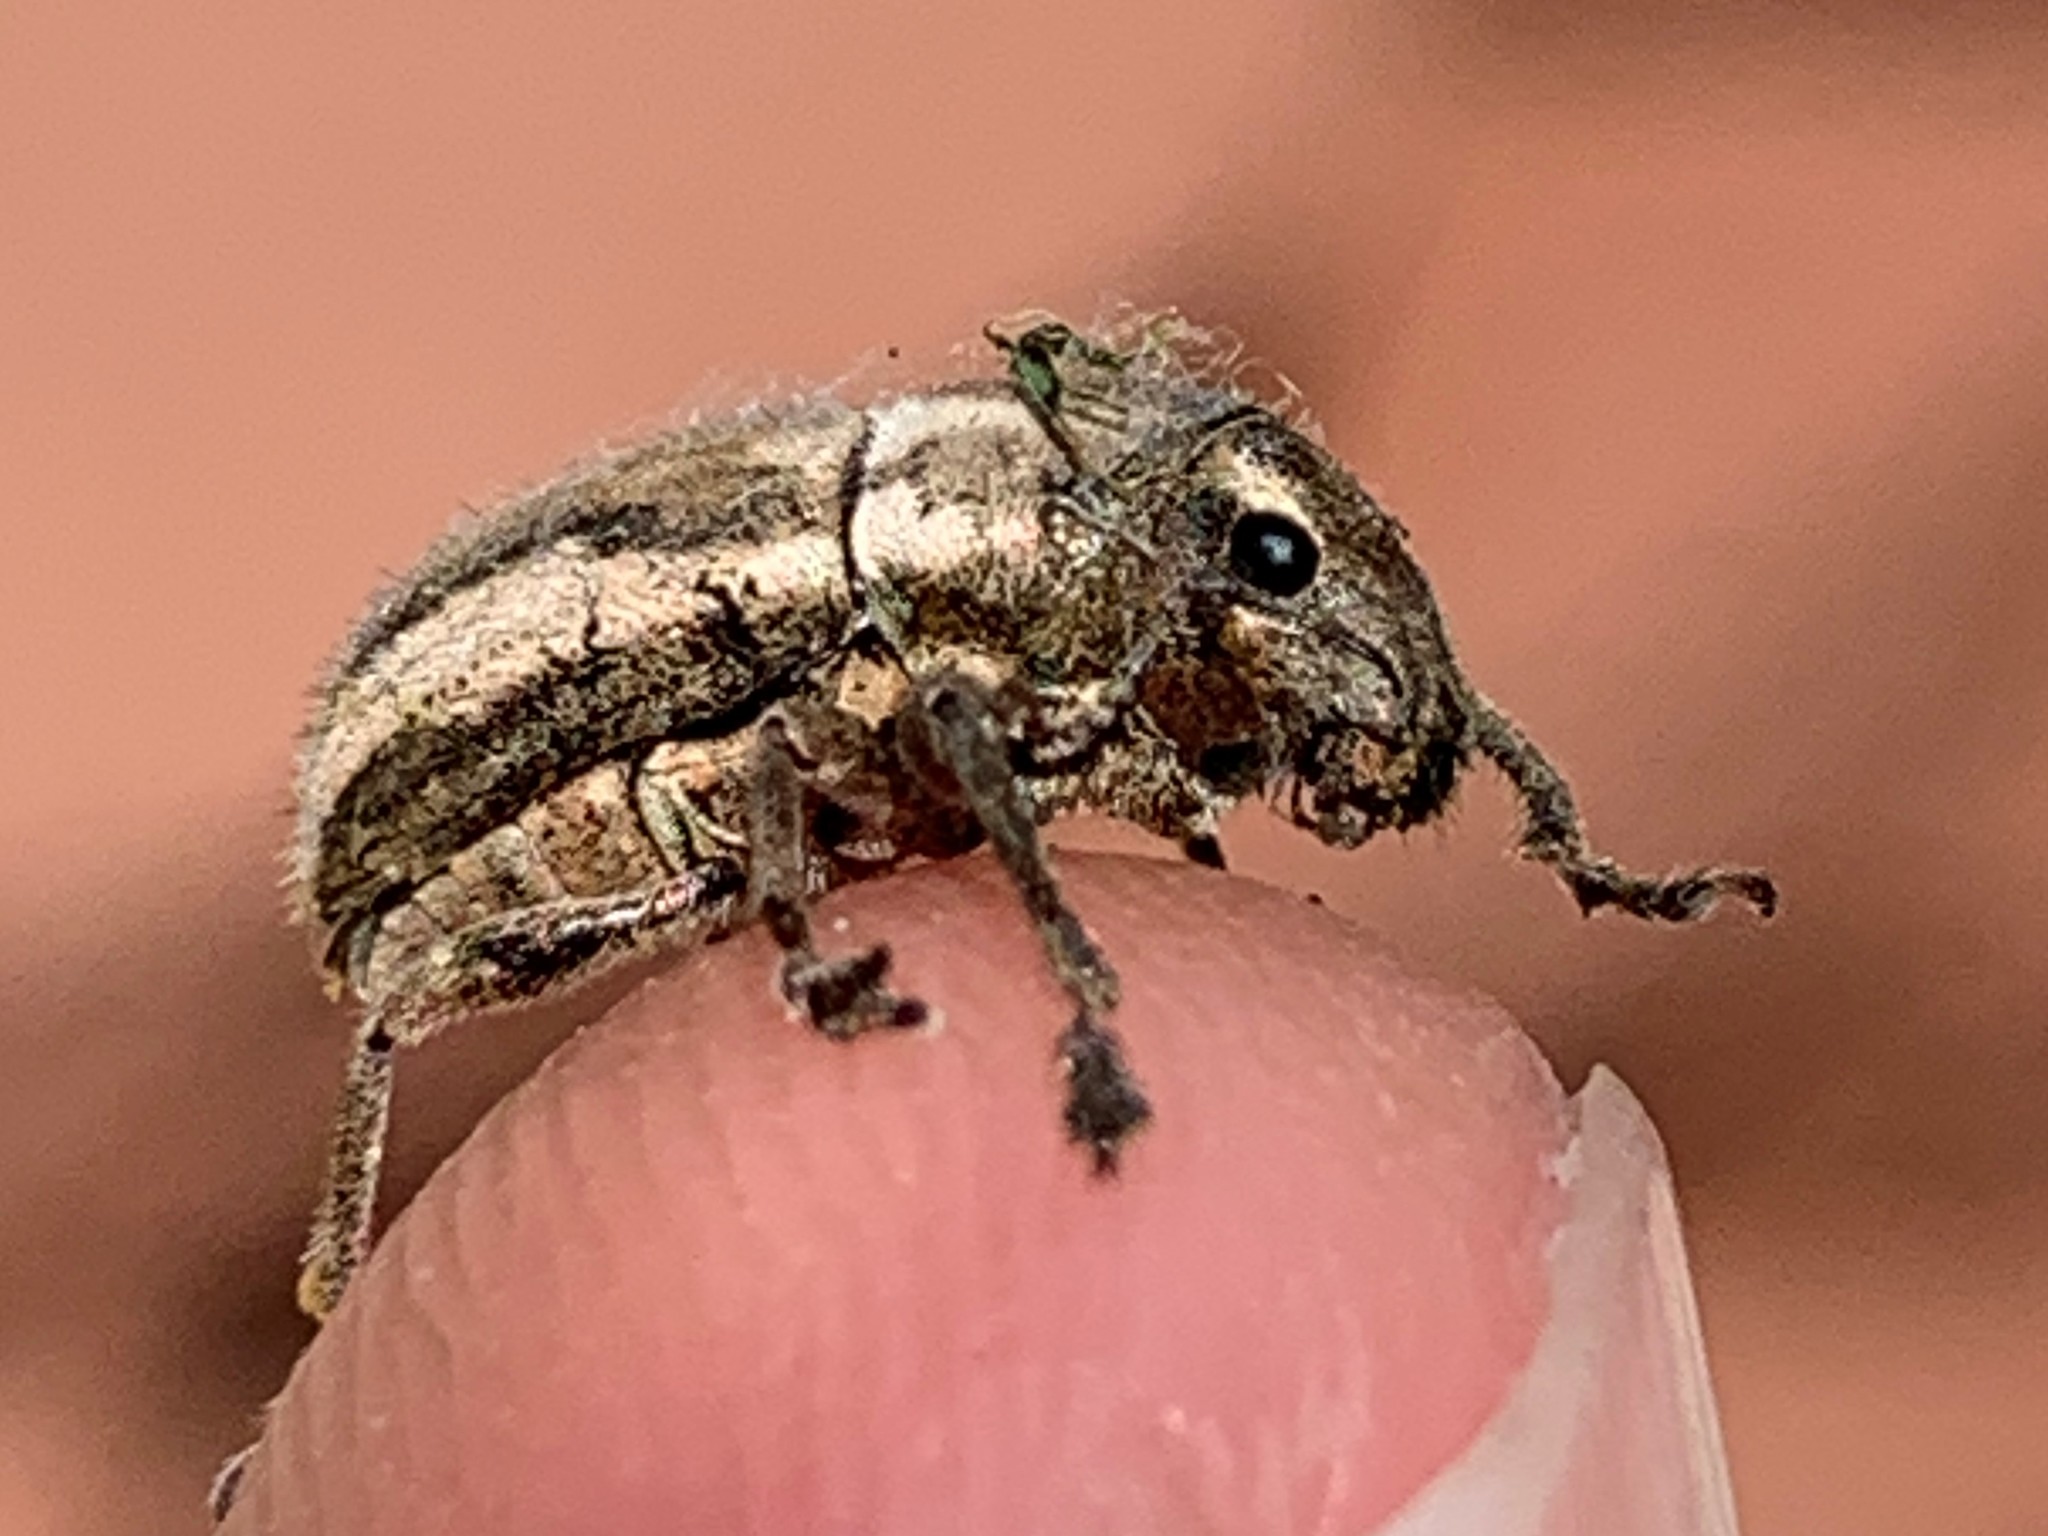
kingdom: Animalia
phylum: Arthropoda
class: Insecta
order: Coleoptera
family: Curculionidae
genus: Naupactus
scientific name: Naupactus peregrinus
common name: Whitefringed beetle
